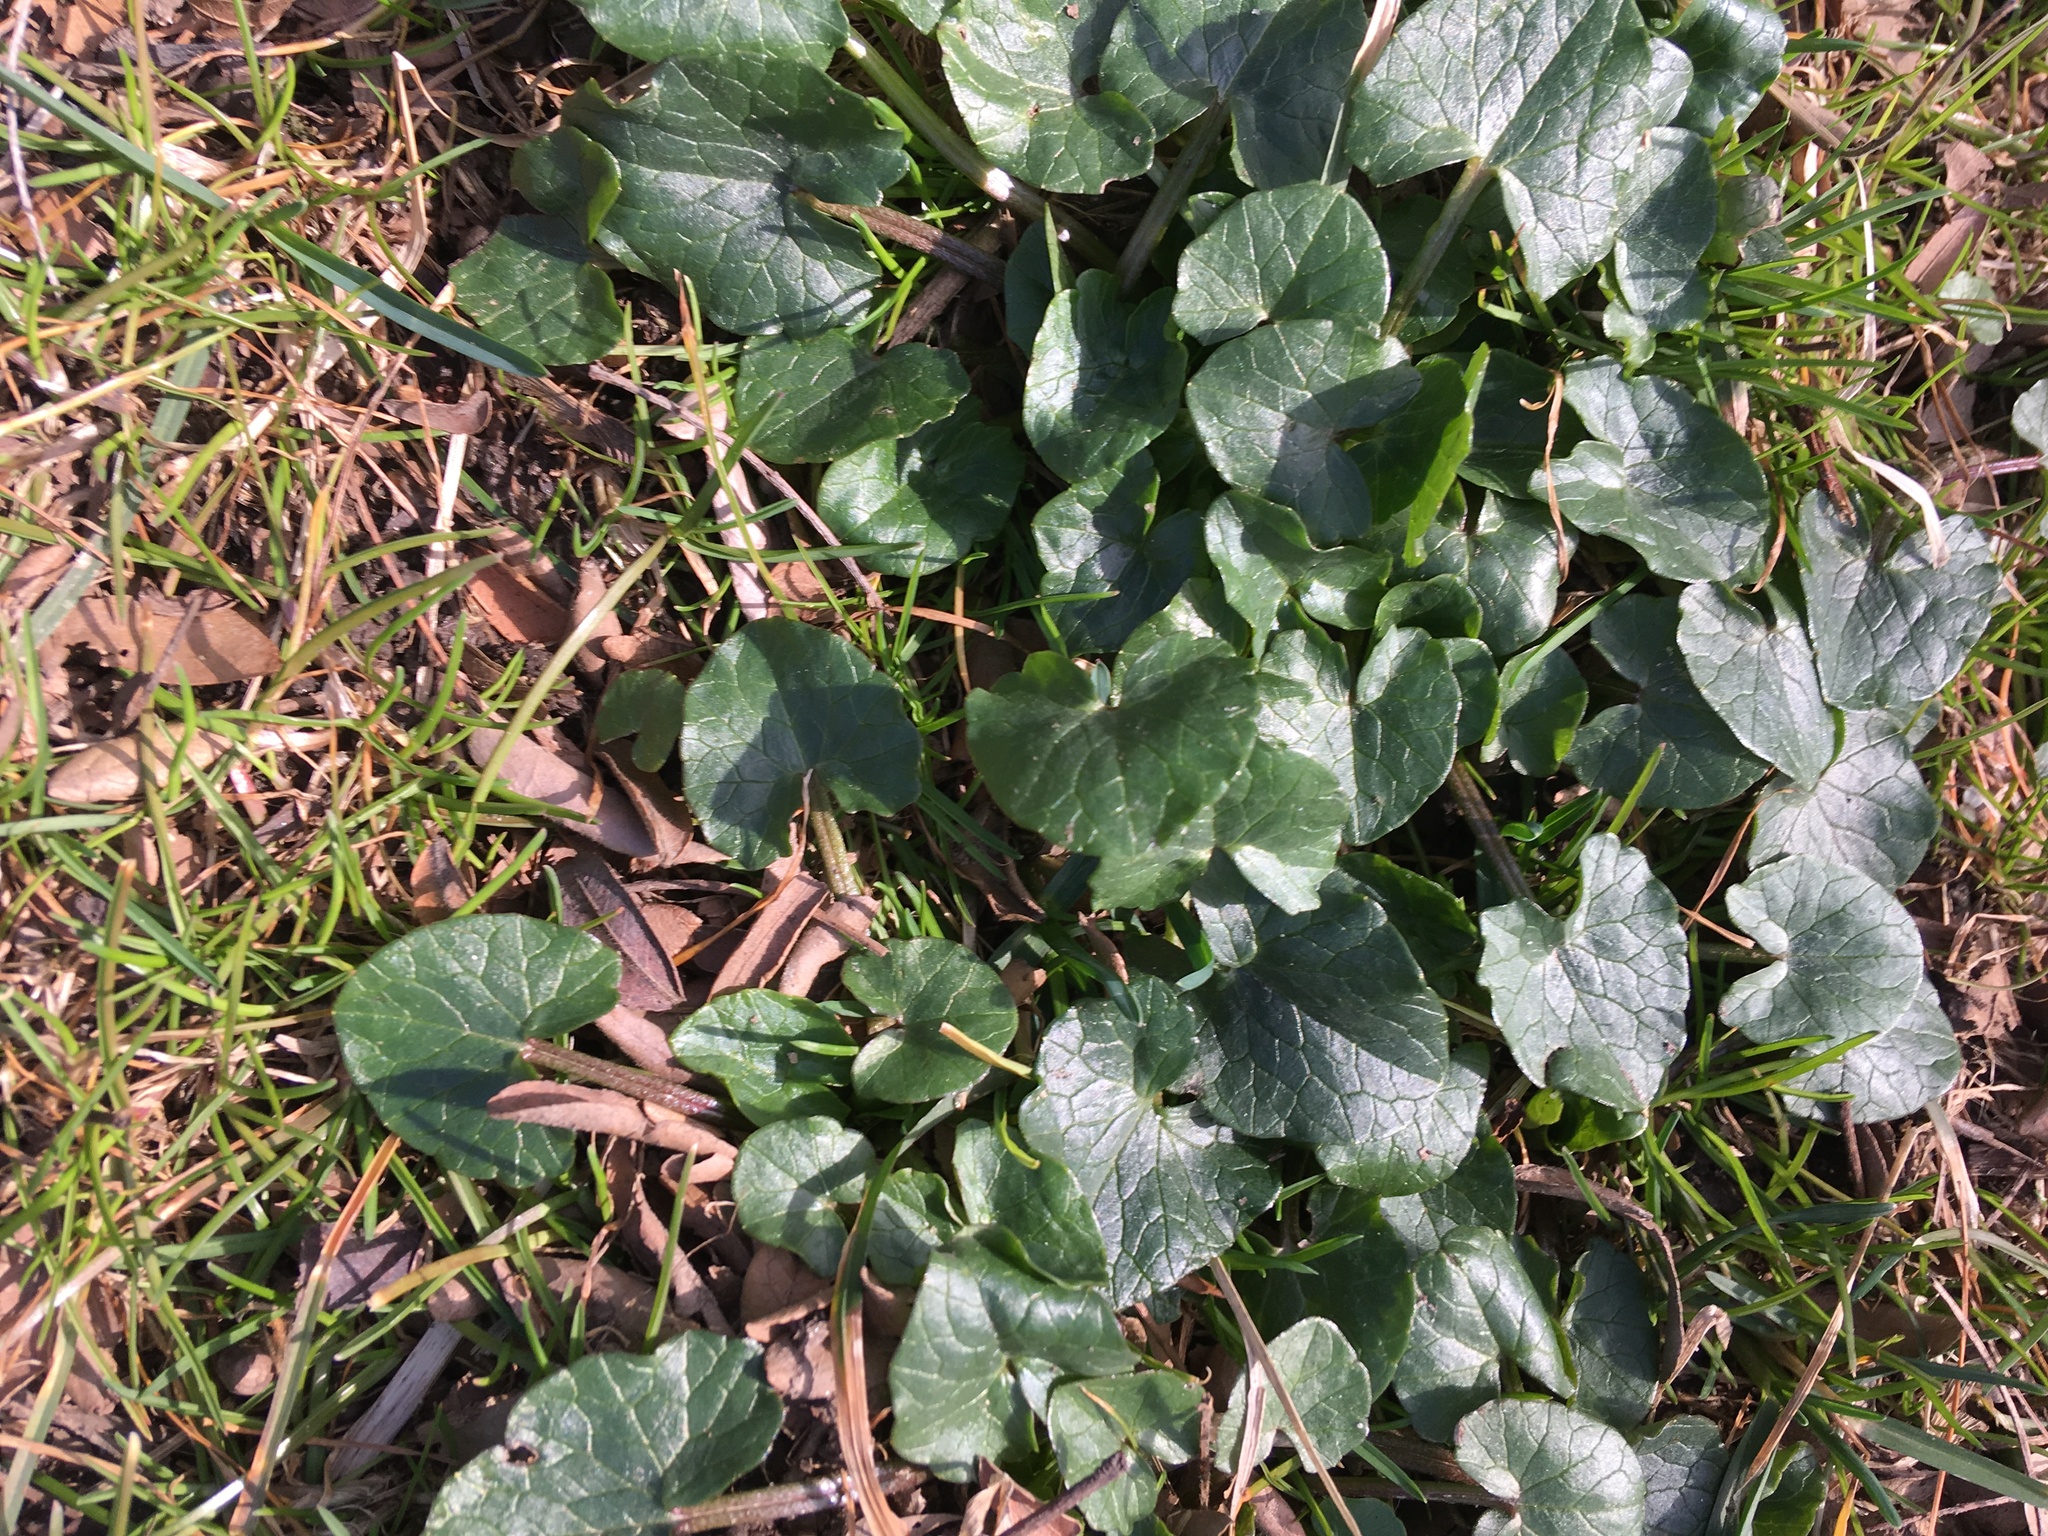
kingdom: Plantae
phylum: Tracheophyta
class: Magnoliopsida
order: Ranunculales
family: Ranunculaceae
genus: Ficaria
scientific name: Ficaria verna
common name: Lesser celandine
